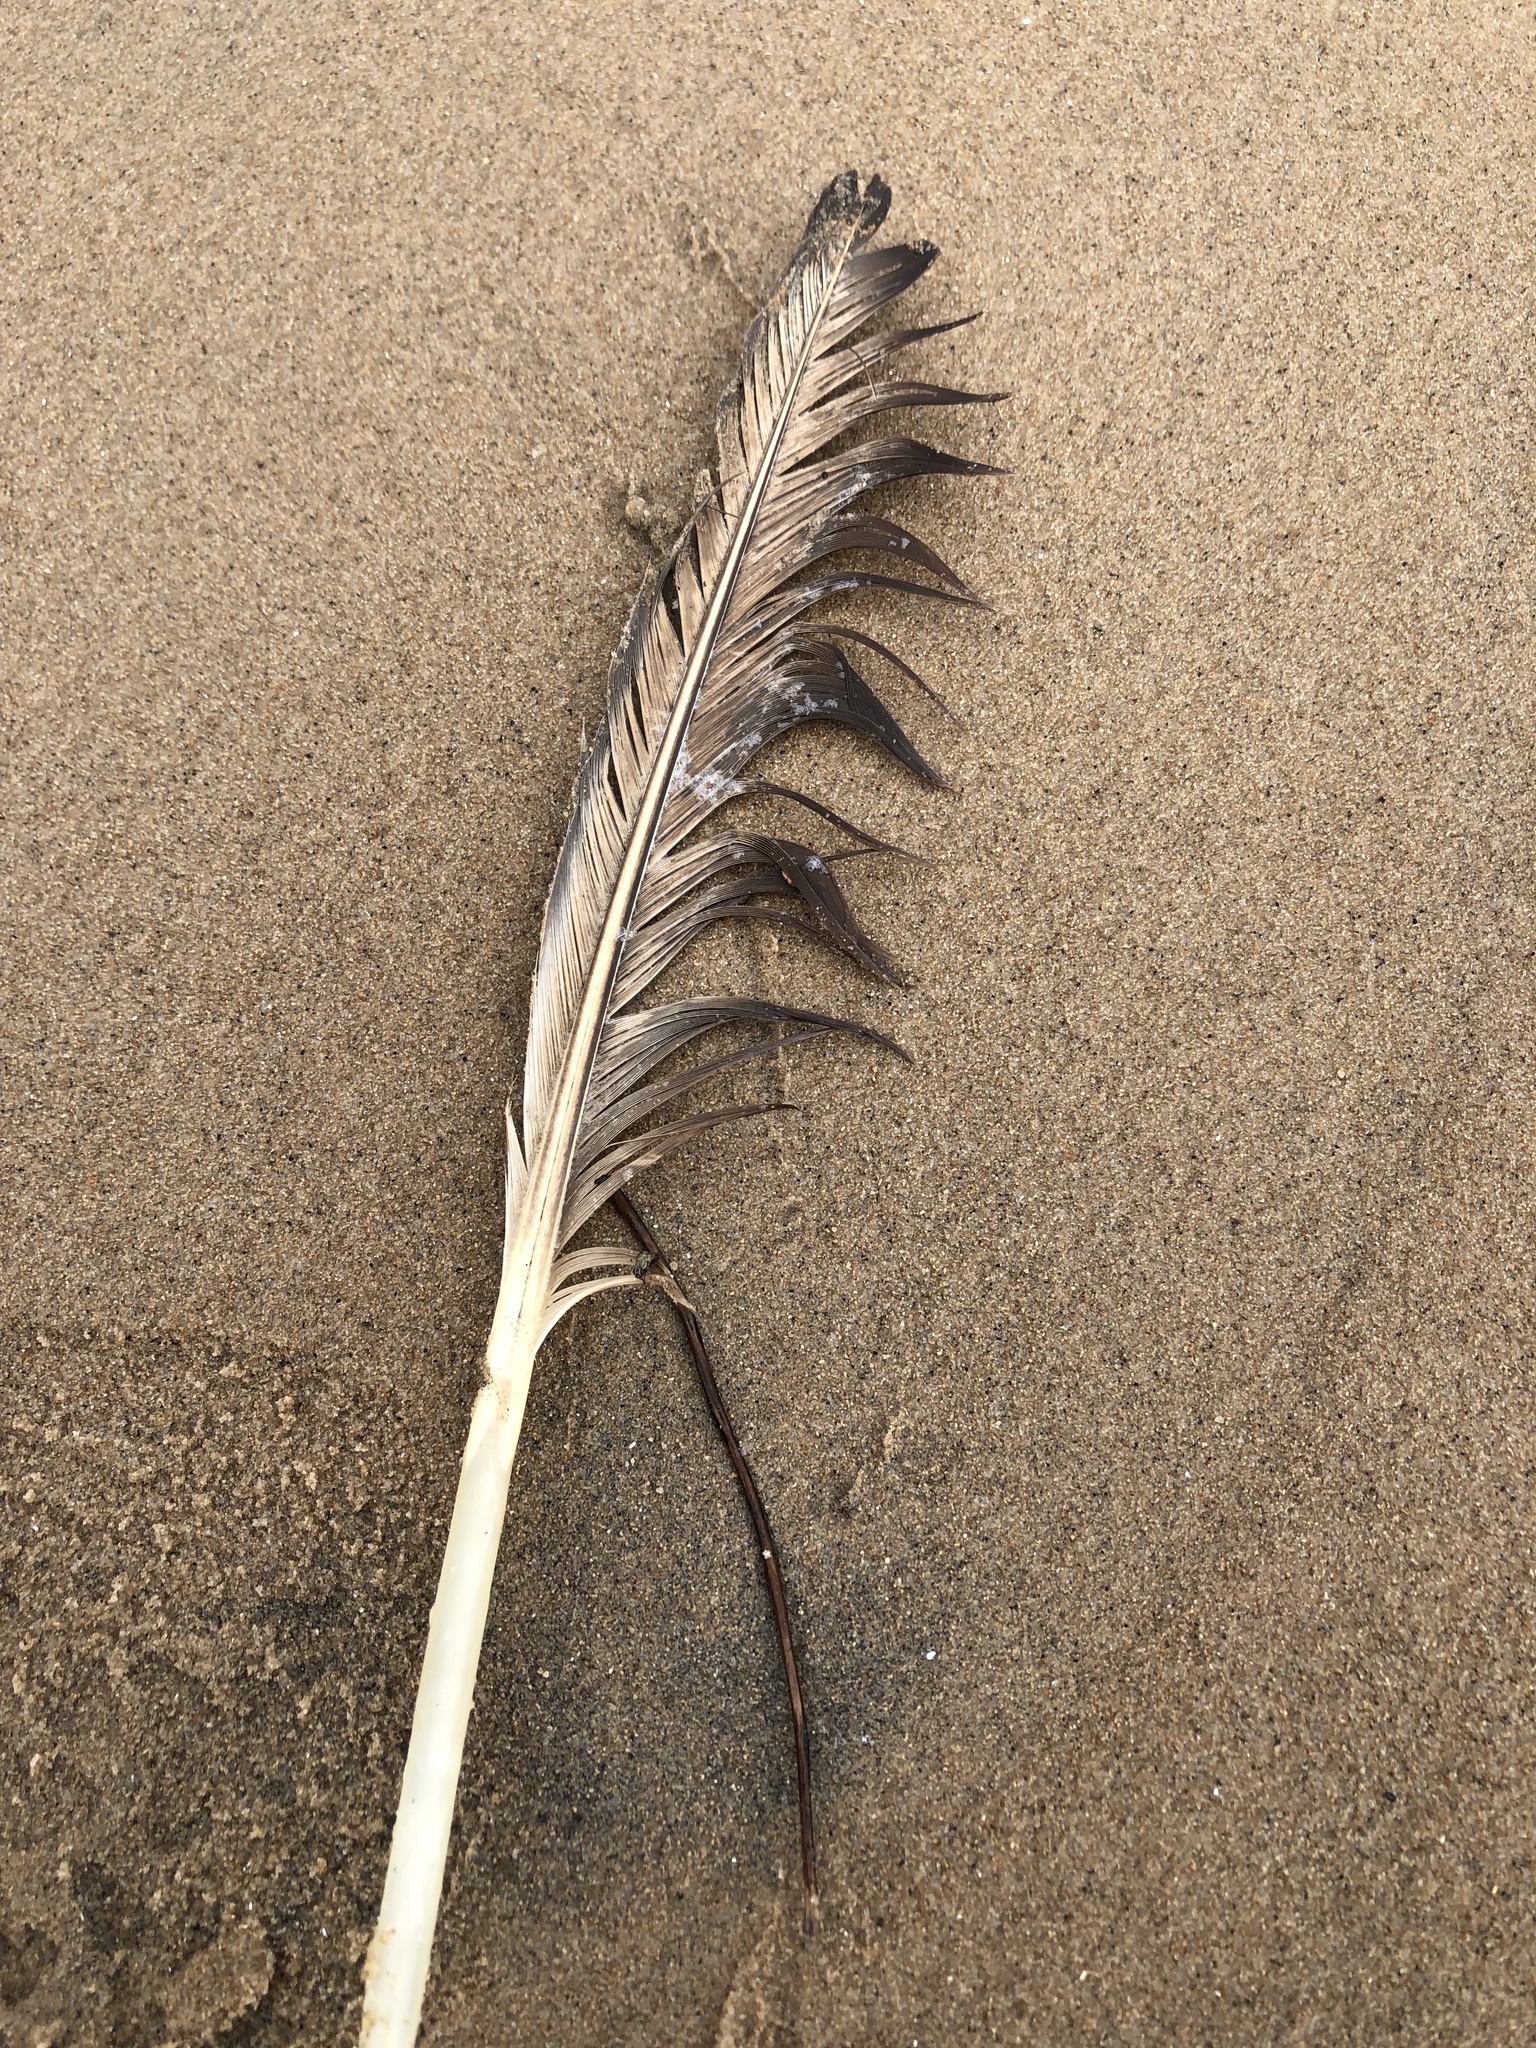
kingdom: Animalia
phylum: Chordata
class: Aves
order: Anseriformes
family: Anatidae
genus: Branta
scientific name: Branta canadensis
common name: Canada goose
